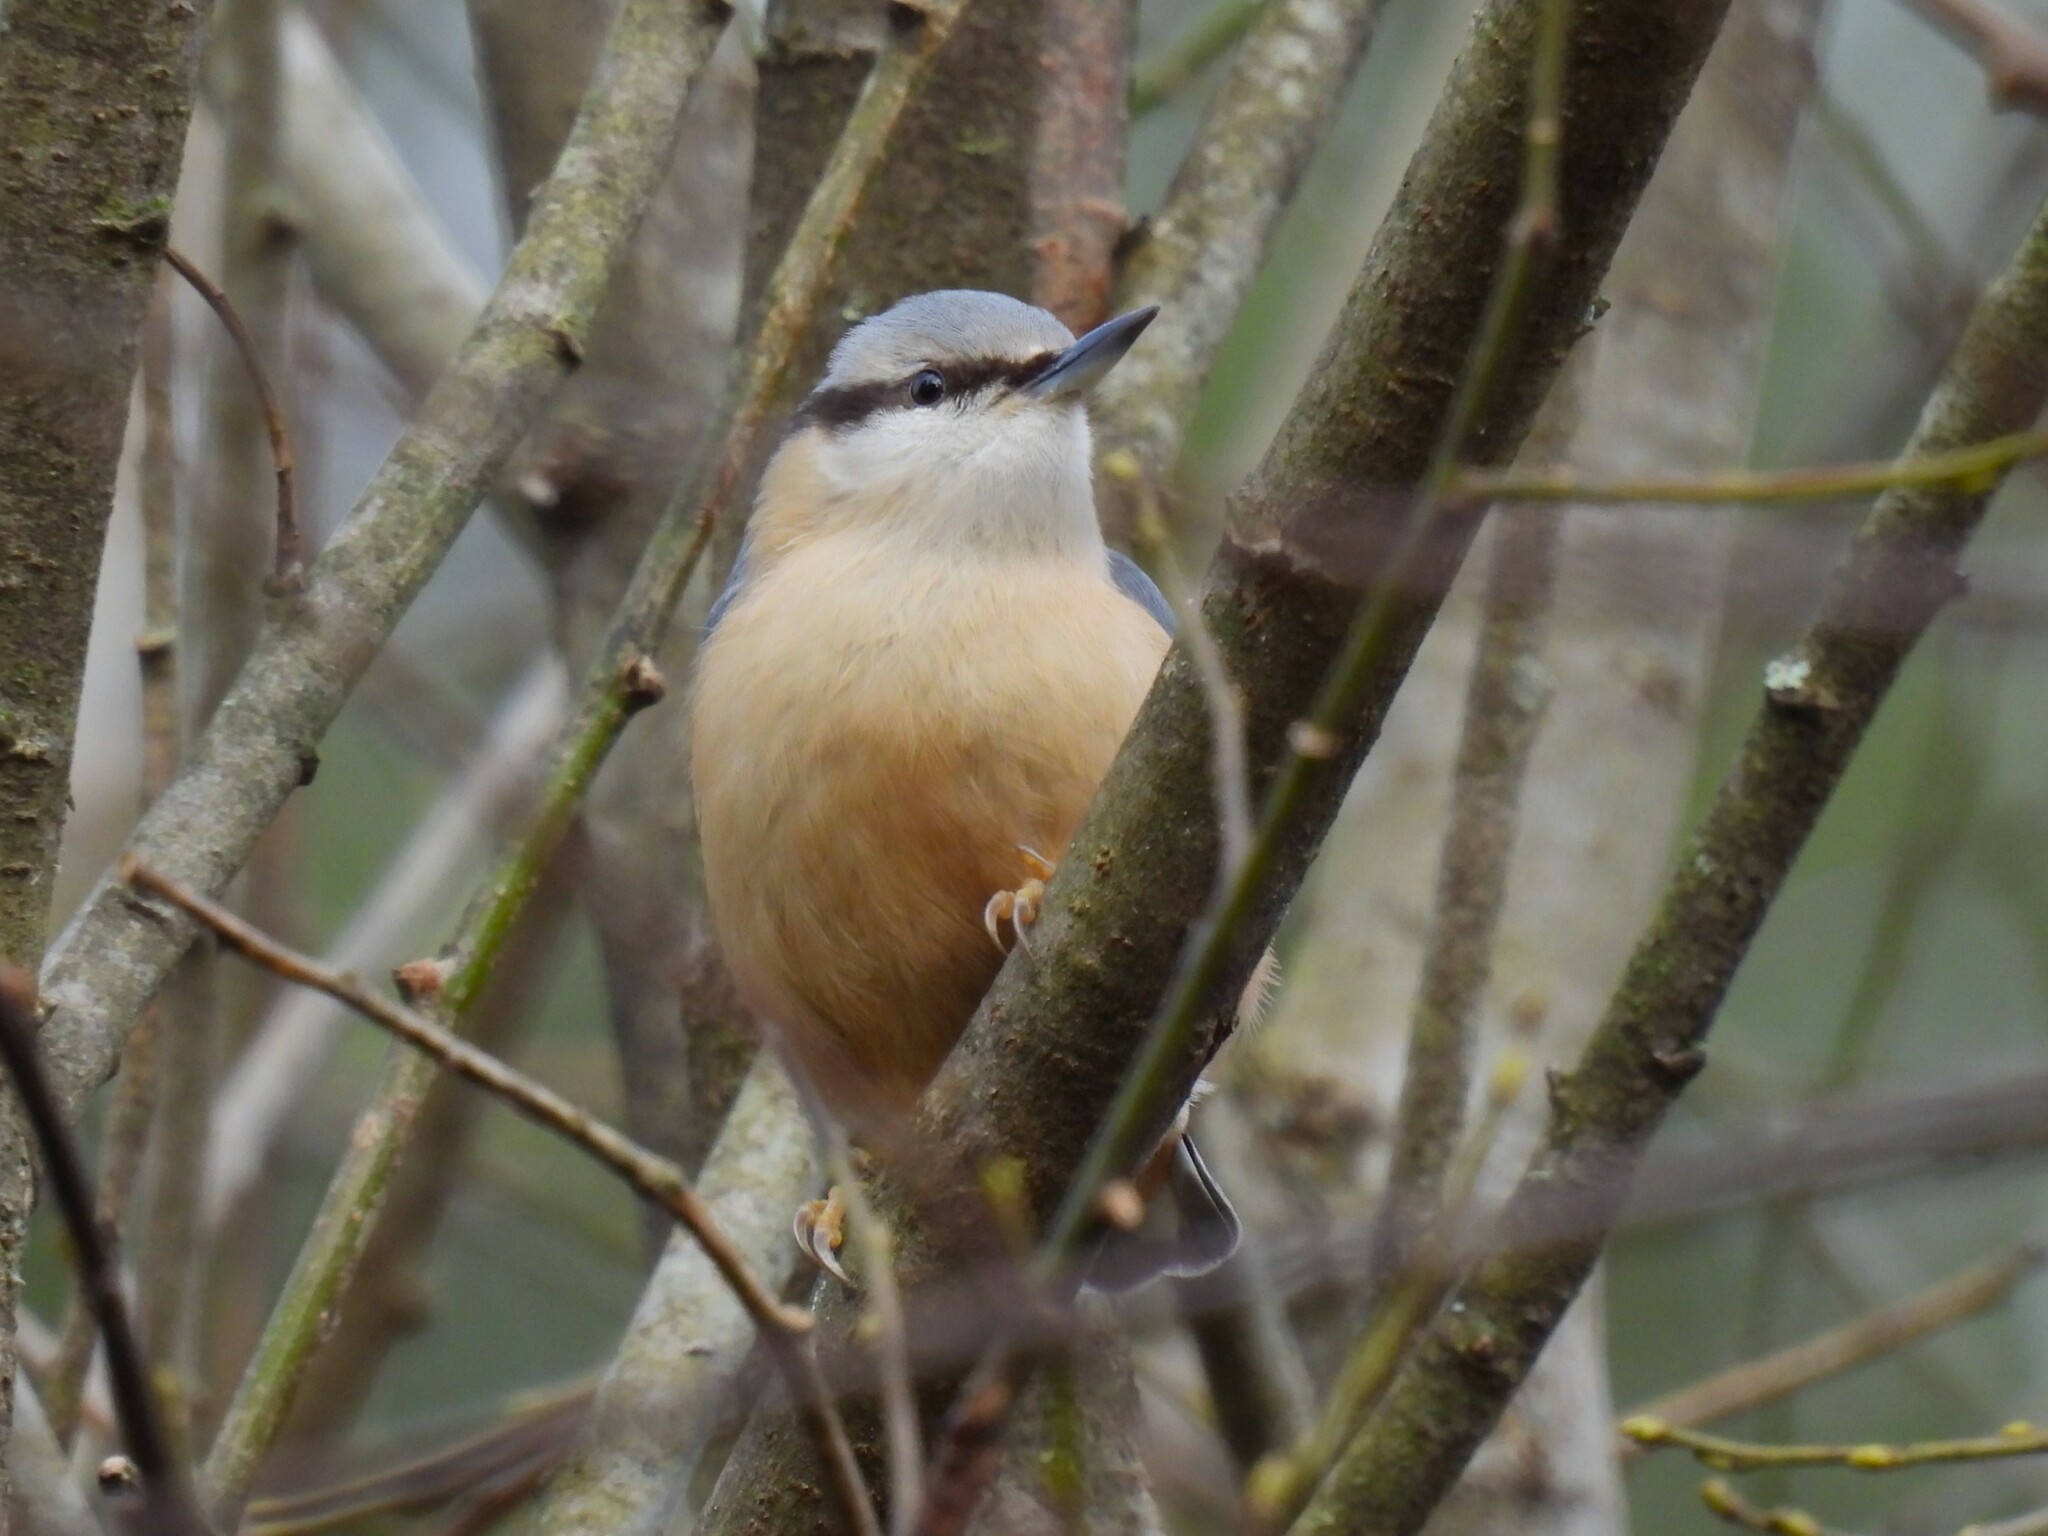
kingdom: Animalia
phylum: Chordata
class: Aves
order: Passeriformes
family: Sittidae
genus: Sitta
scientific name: Sitta europaea
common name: Eurasian nuthatch
